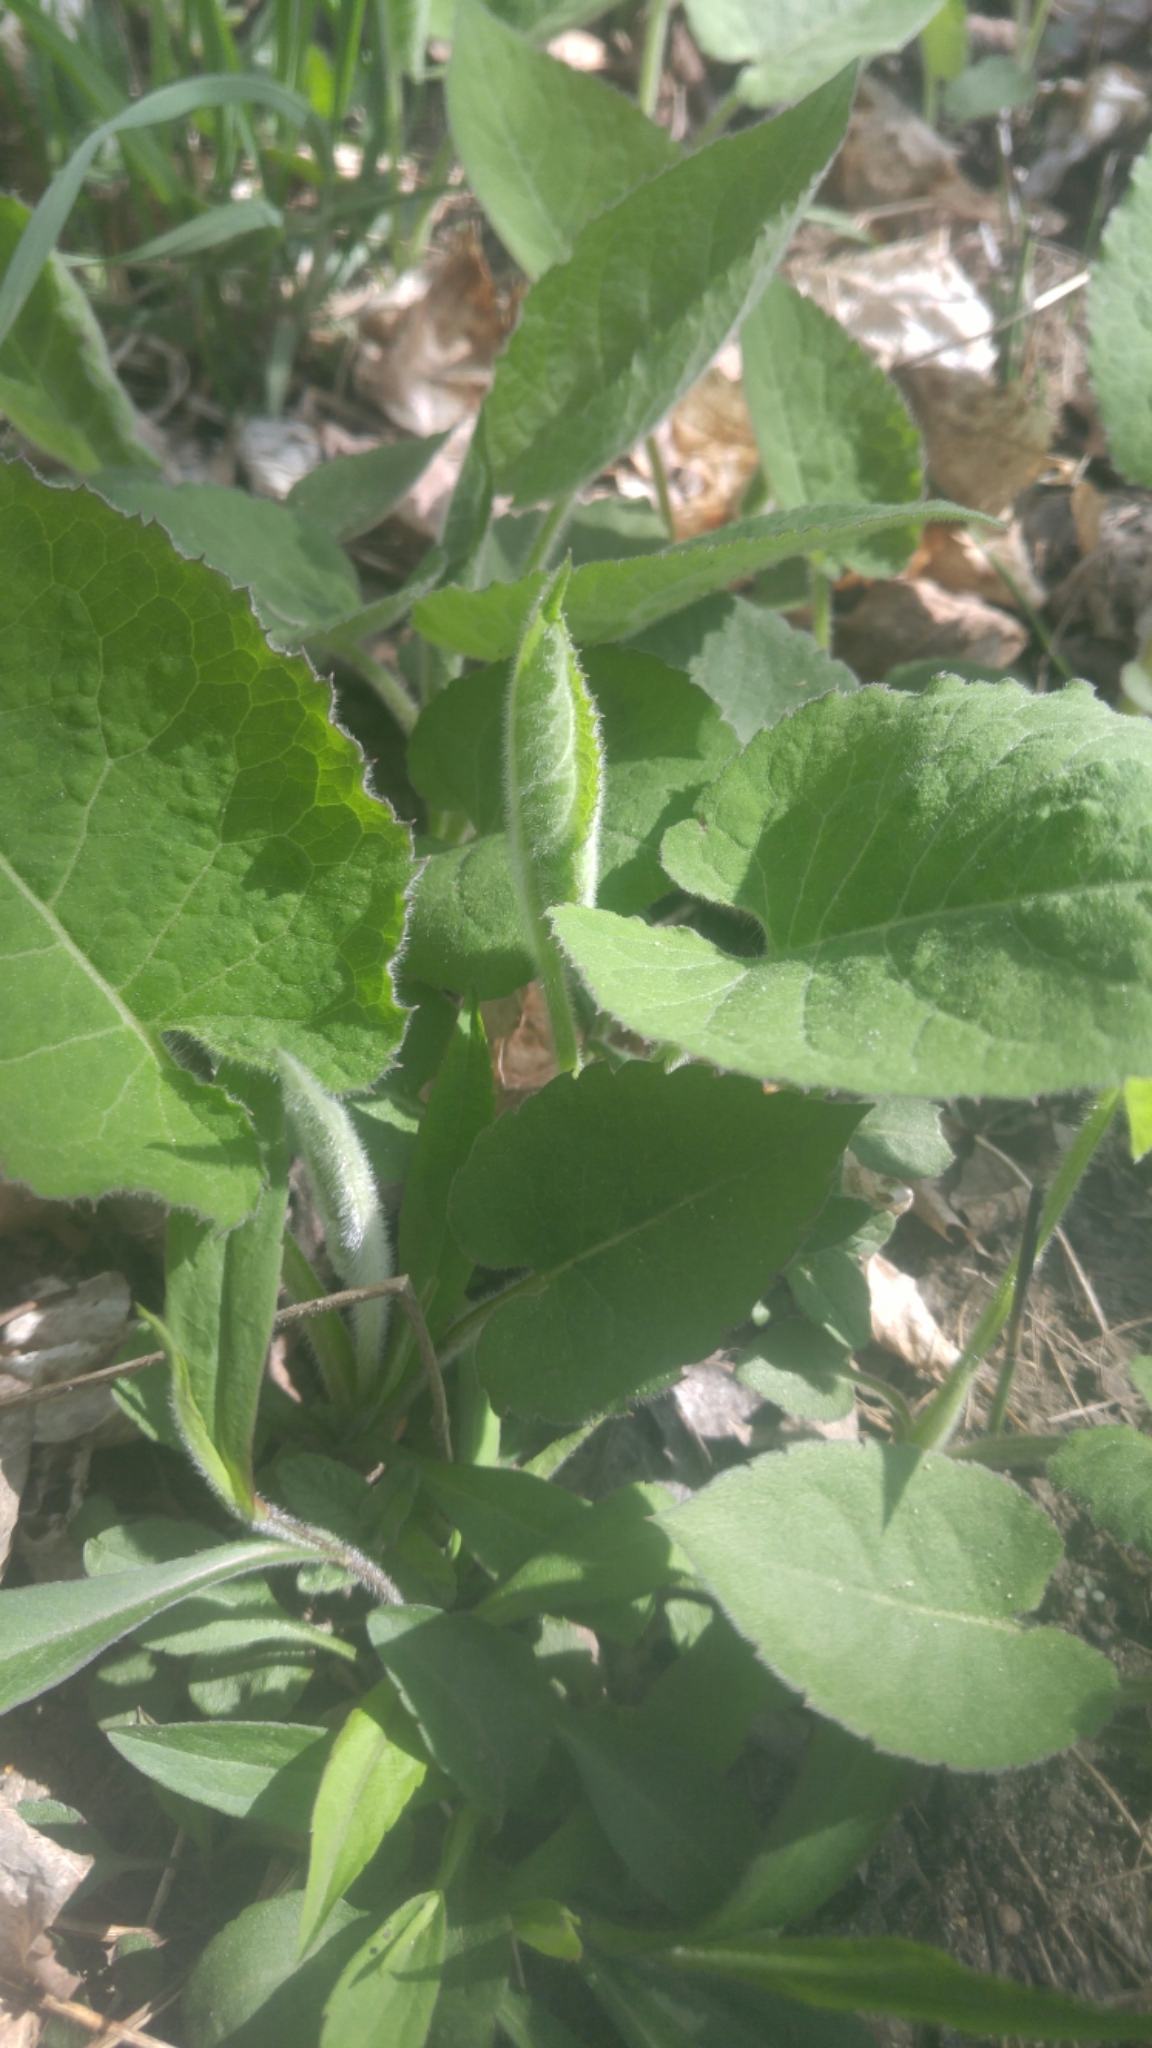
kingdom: Plantae
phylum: Tracheophyta
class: Magnoliopsida
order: Asterales
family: Asteraceae
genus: Eurybia
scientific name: Eurybia macrophylla
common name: Big-leaved aster
